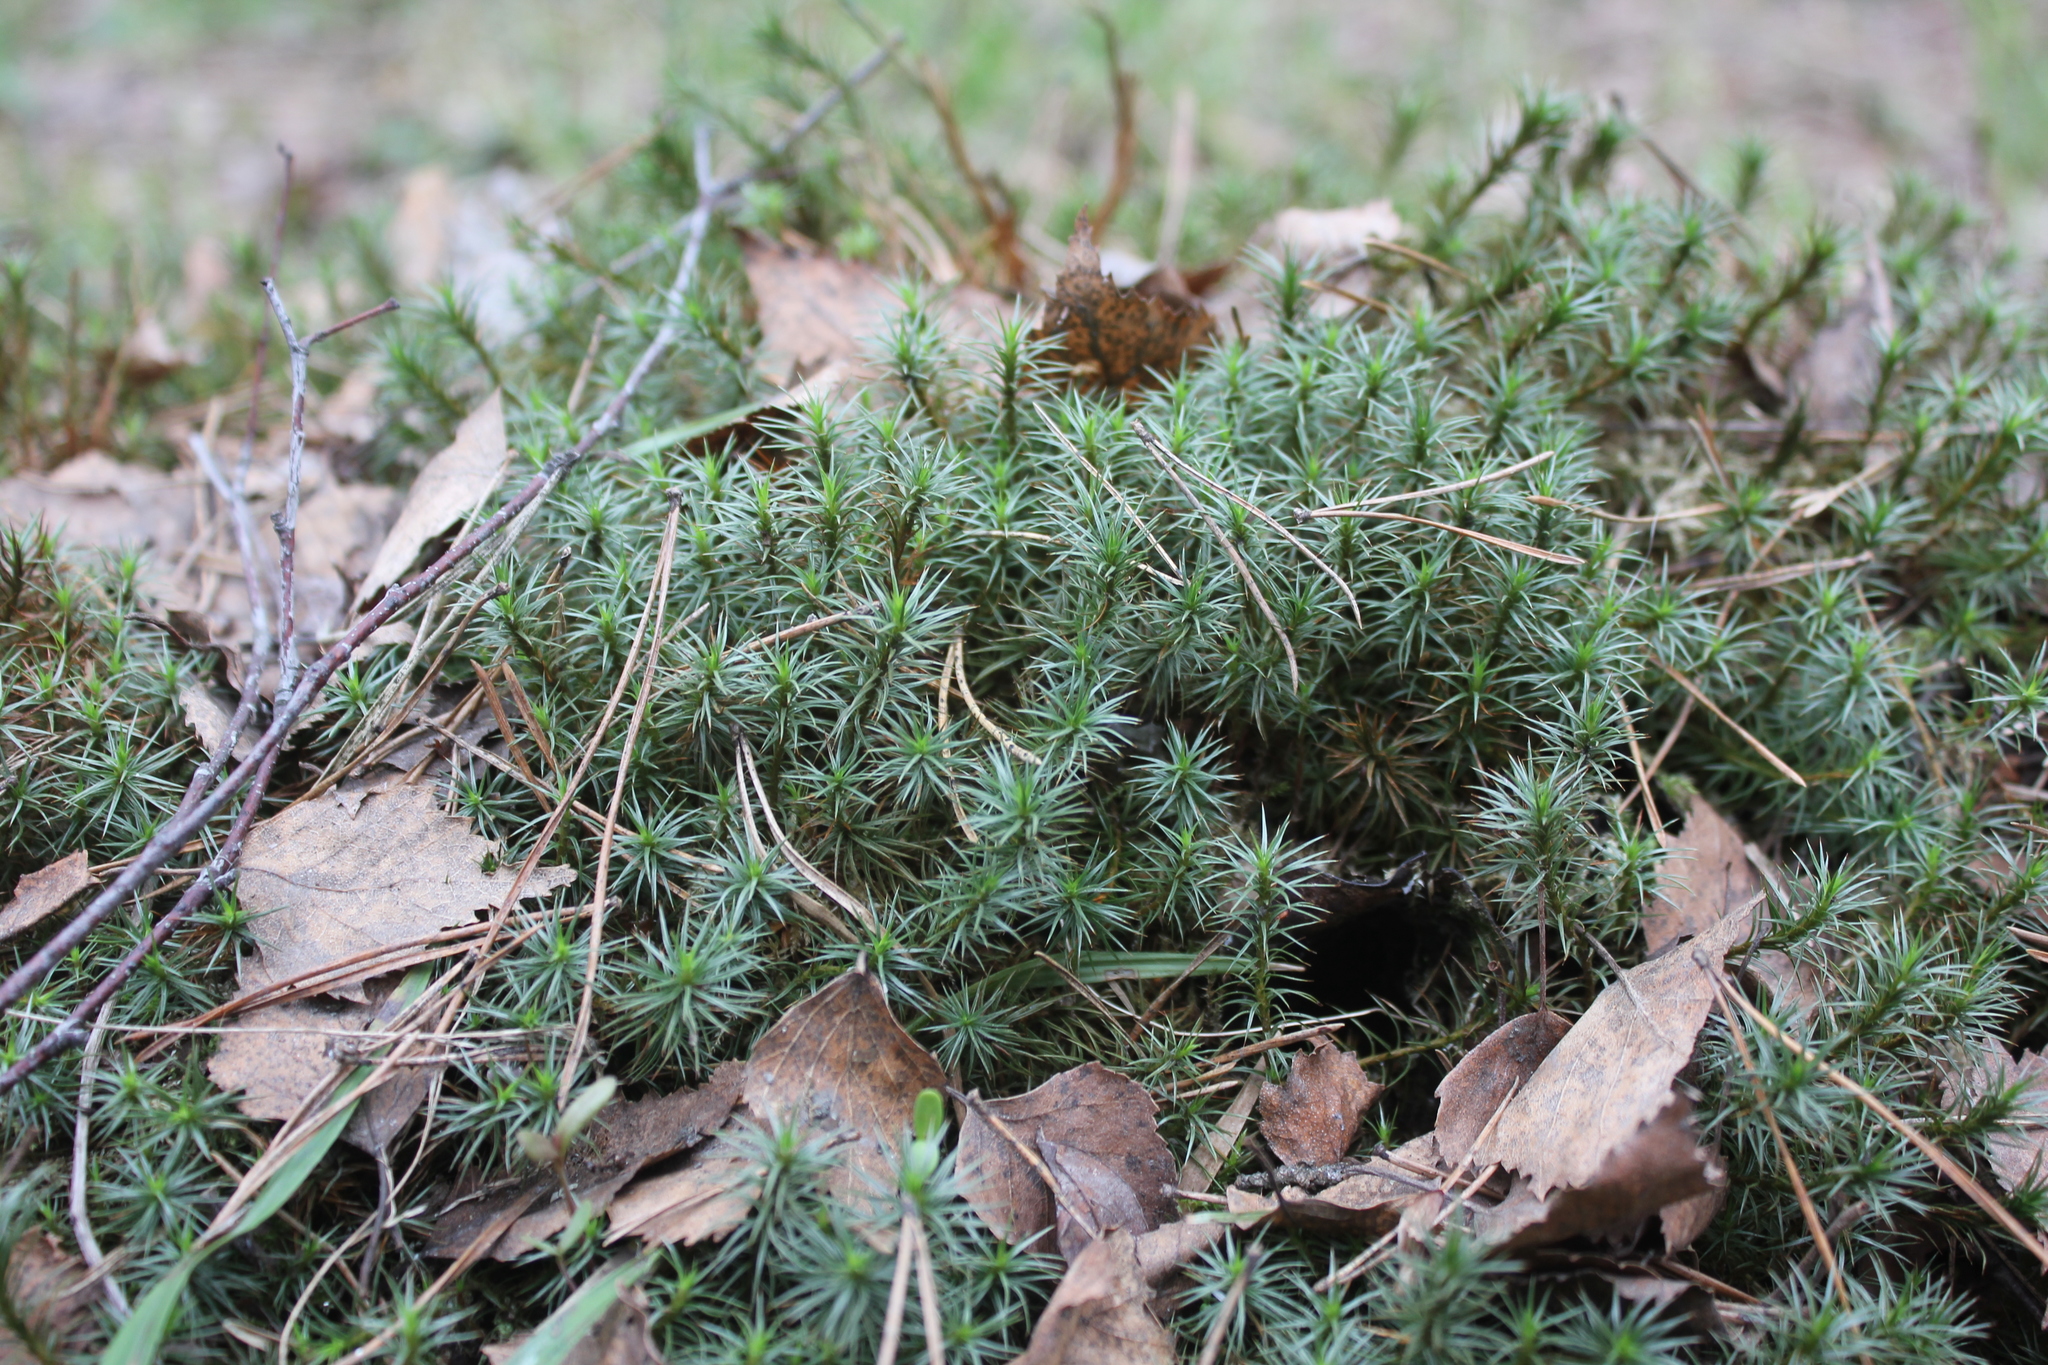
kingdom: Plantae
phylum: Bryophyta
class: Polytrichopsida
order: Polytrichales
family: Polytrichaceae
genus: Polytrichum
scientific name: Polytrichum juniperinum
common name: Juniper haircap moss
